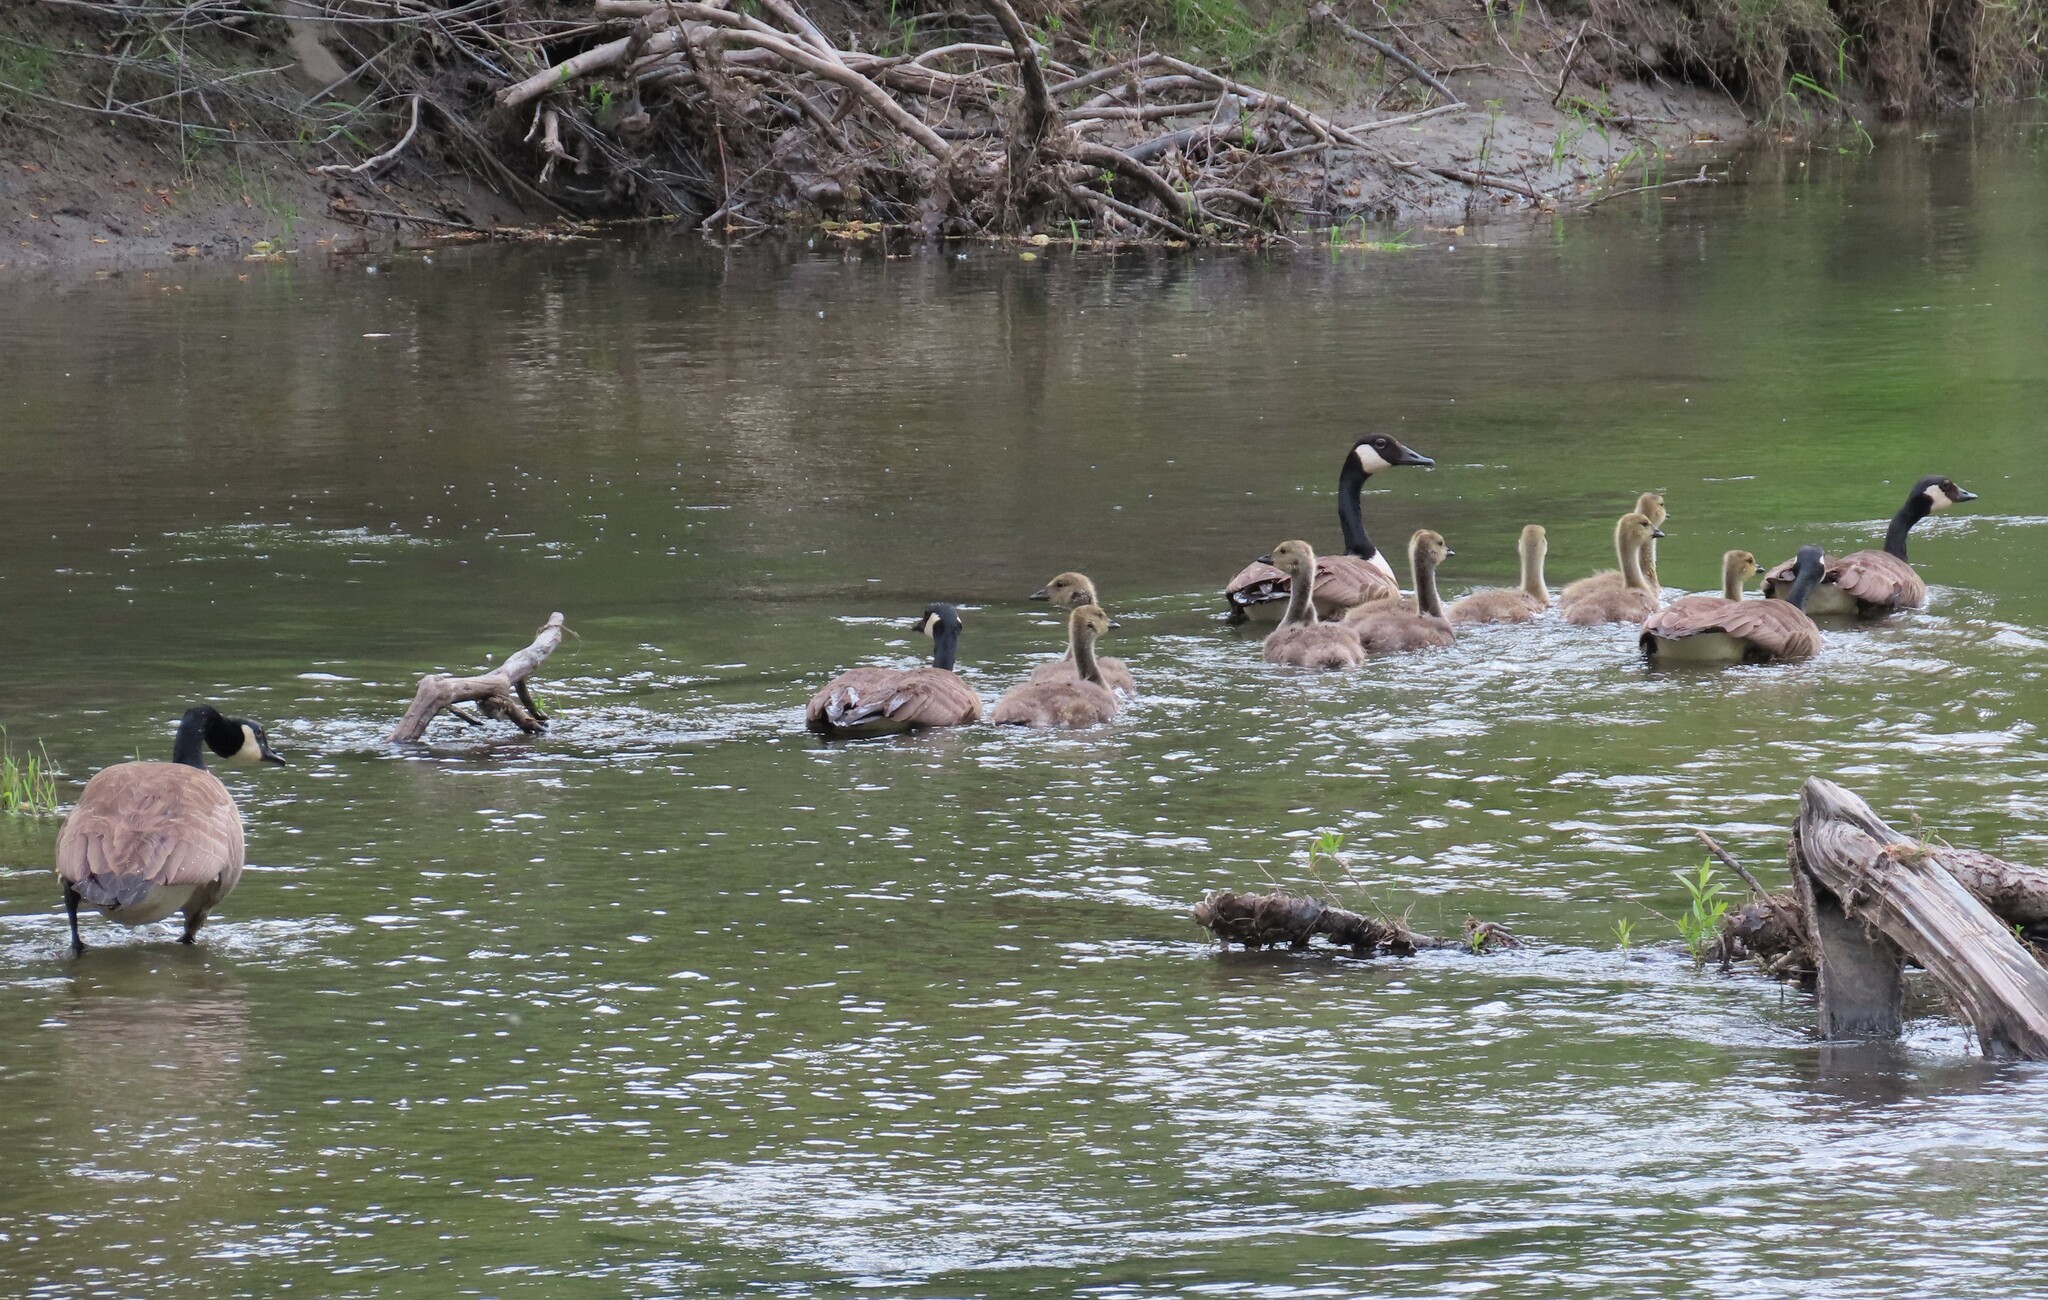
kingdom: Animalia
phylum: Chordata
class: Aves
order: Anseriformes
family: Anatidae
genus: Branta
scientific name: Branta canadensis
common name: Canada goose
